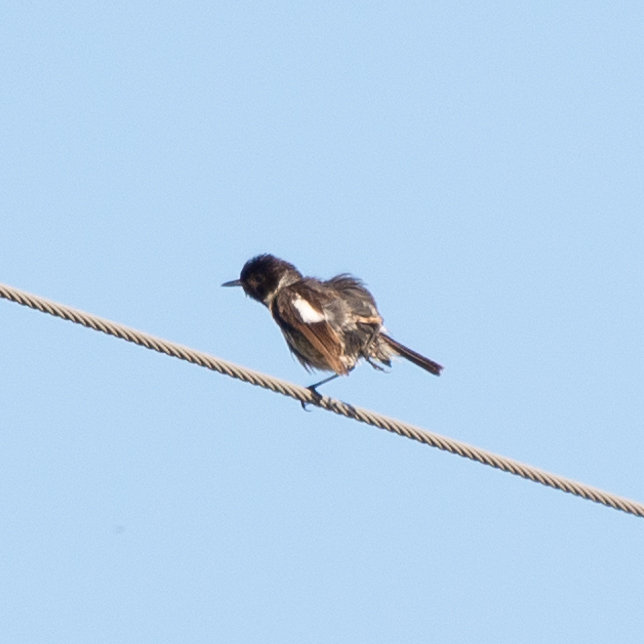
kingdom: Animalia
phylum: Chordata
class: Aves
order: Passeriformes
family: Muscicapidae
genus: Saxicola
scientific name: Saxicola rubicola
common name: European stonechat
